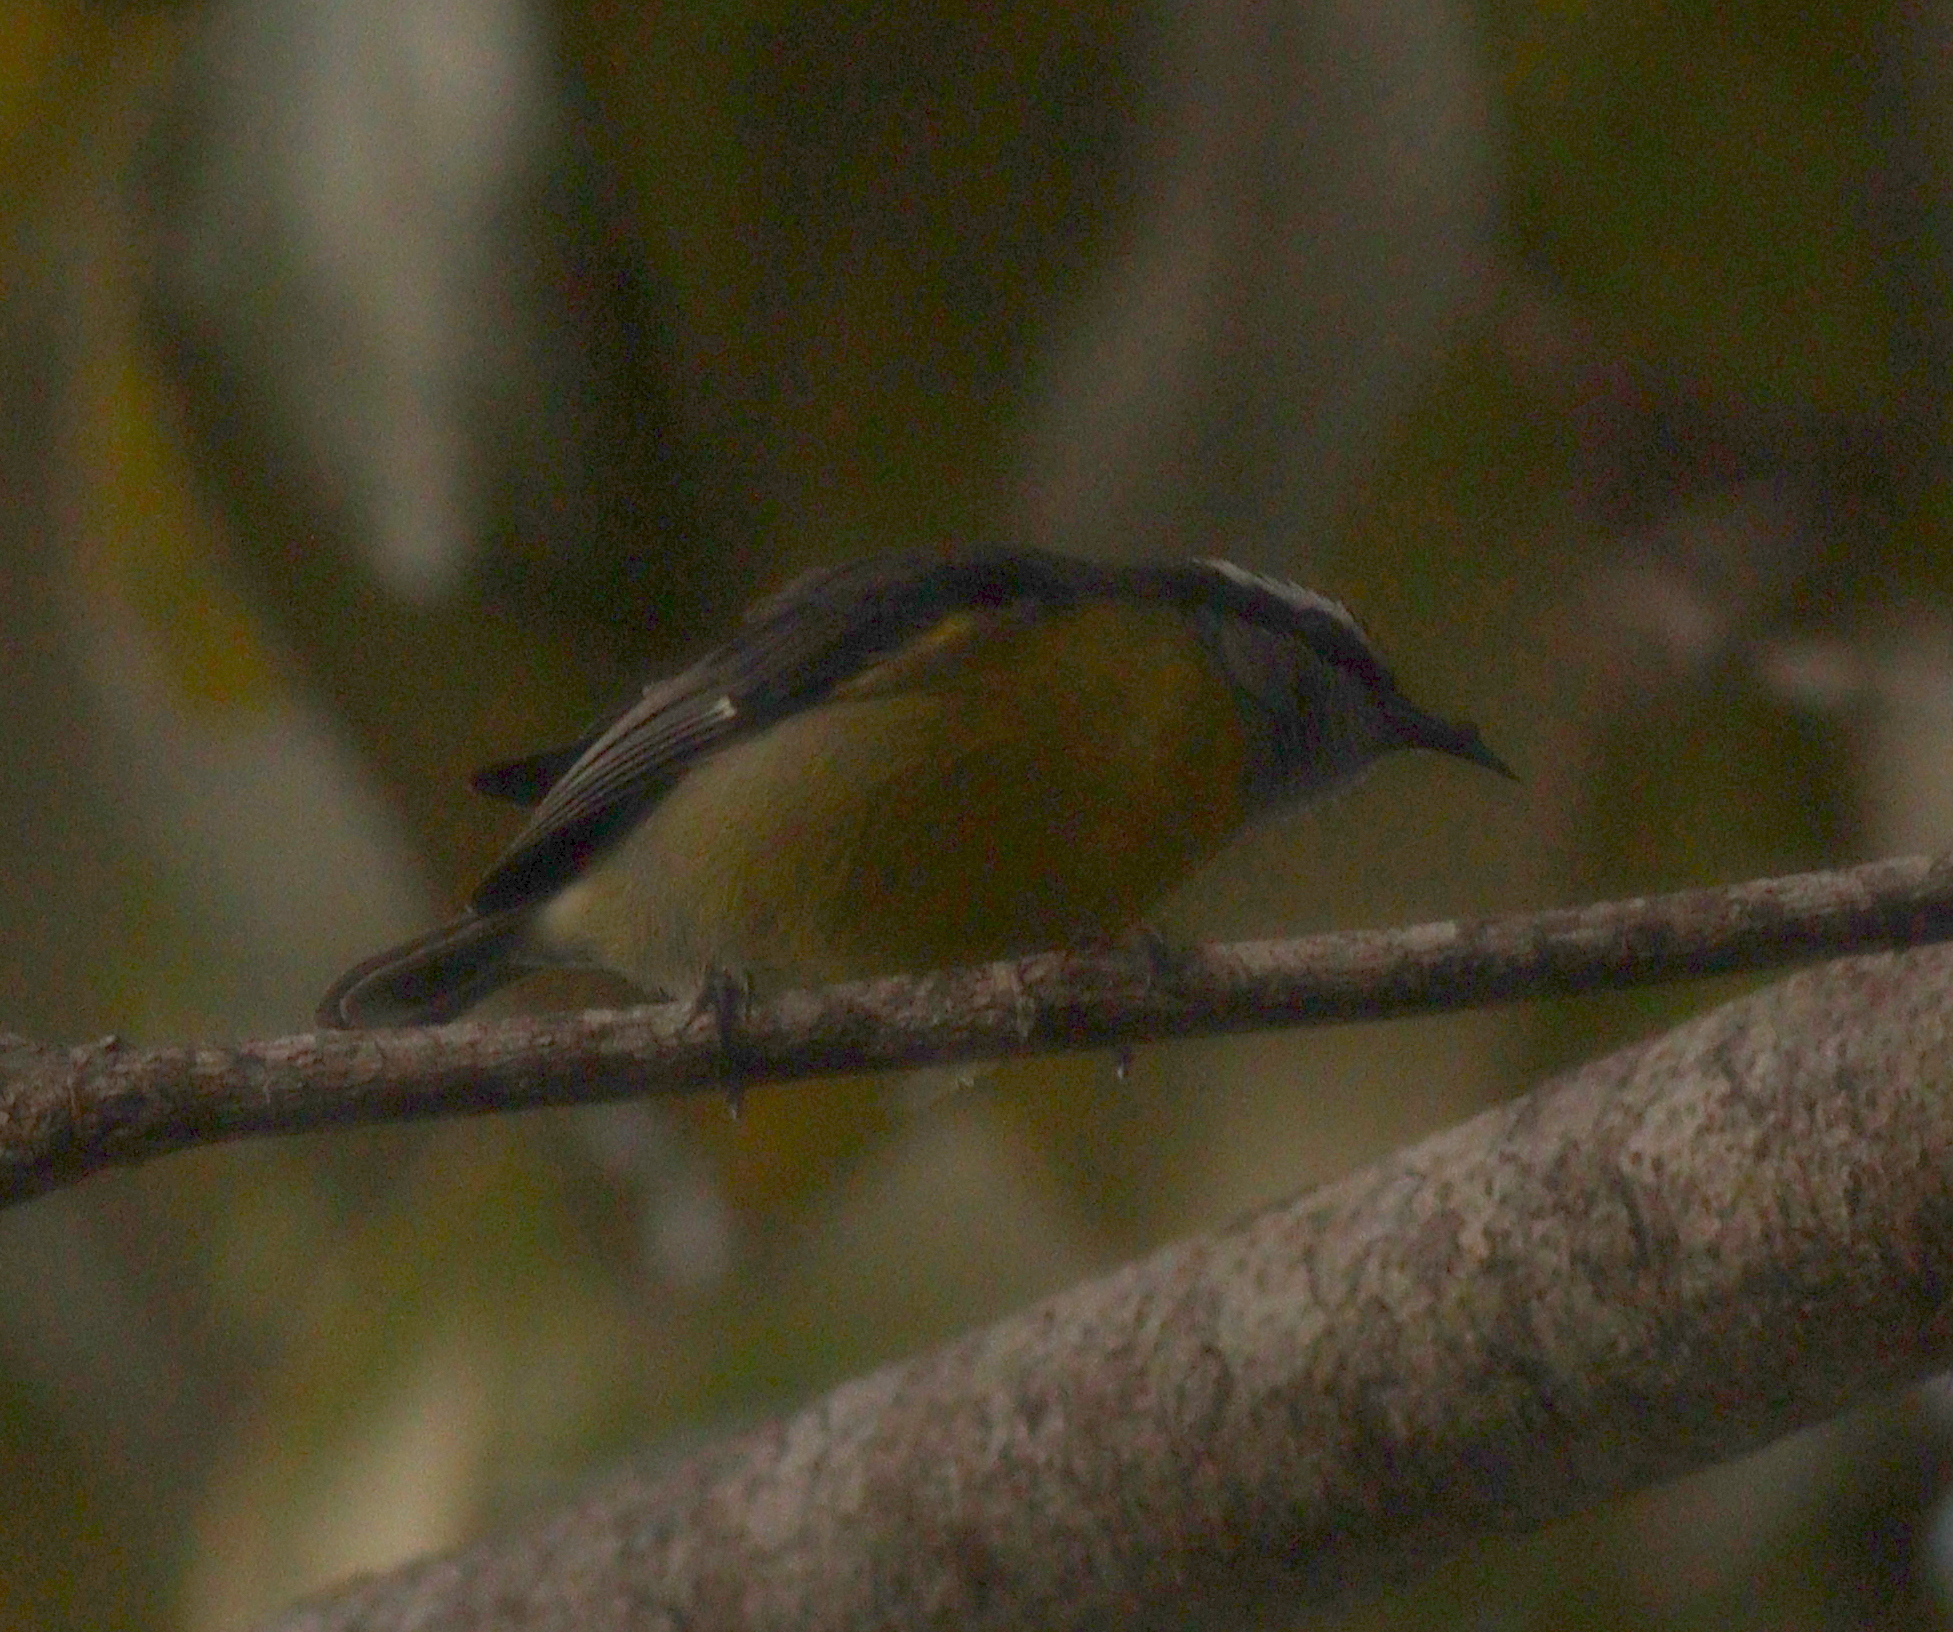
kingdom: Animalia
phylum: Chordata
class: Aves
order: Passeriformes
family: Thraupidae
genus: Coereba
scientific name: Coereba flaveola
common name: Bananaquit
